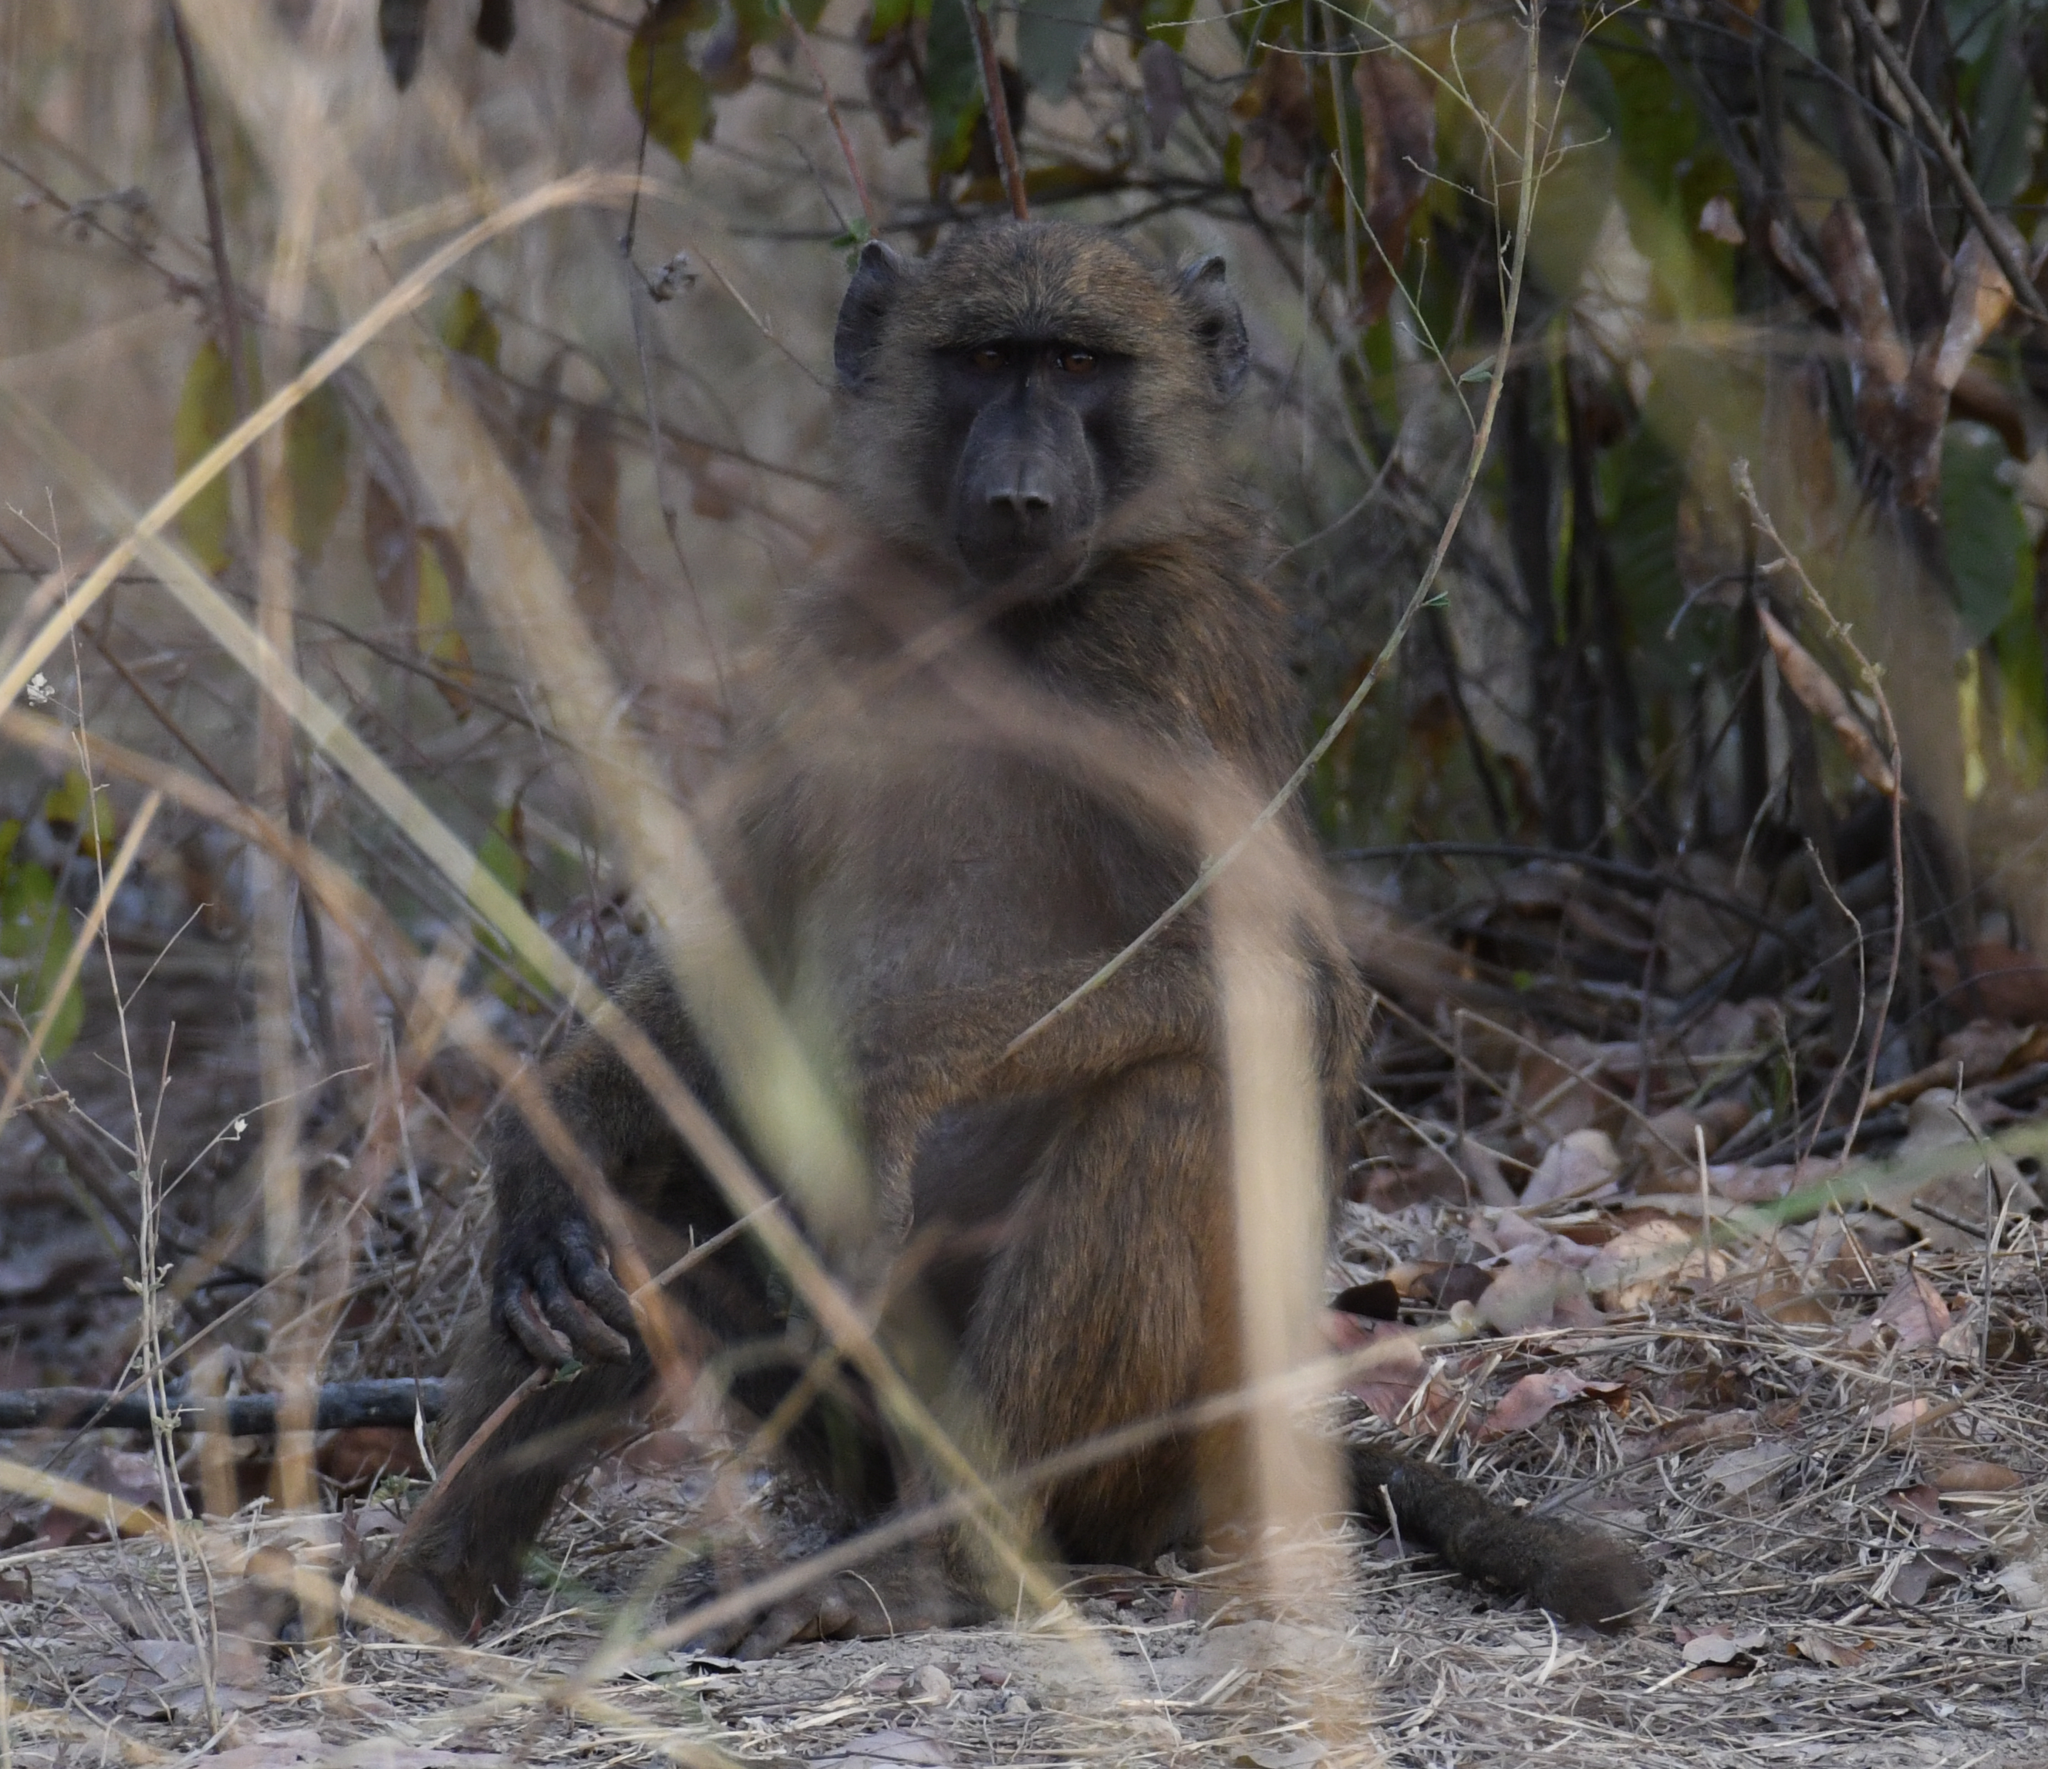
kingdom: Animalia
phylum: Chordata
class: Mammalia
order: Primates
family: Cercopithecidae
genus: Papio
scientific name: Papio anubis
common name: Olive baboon
